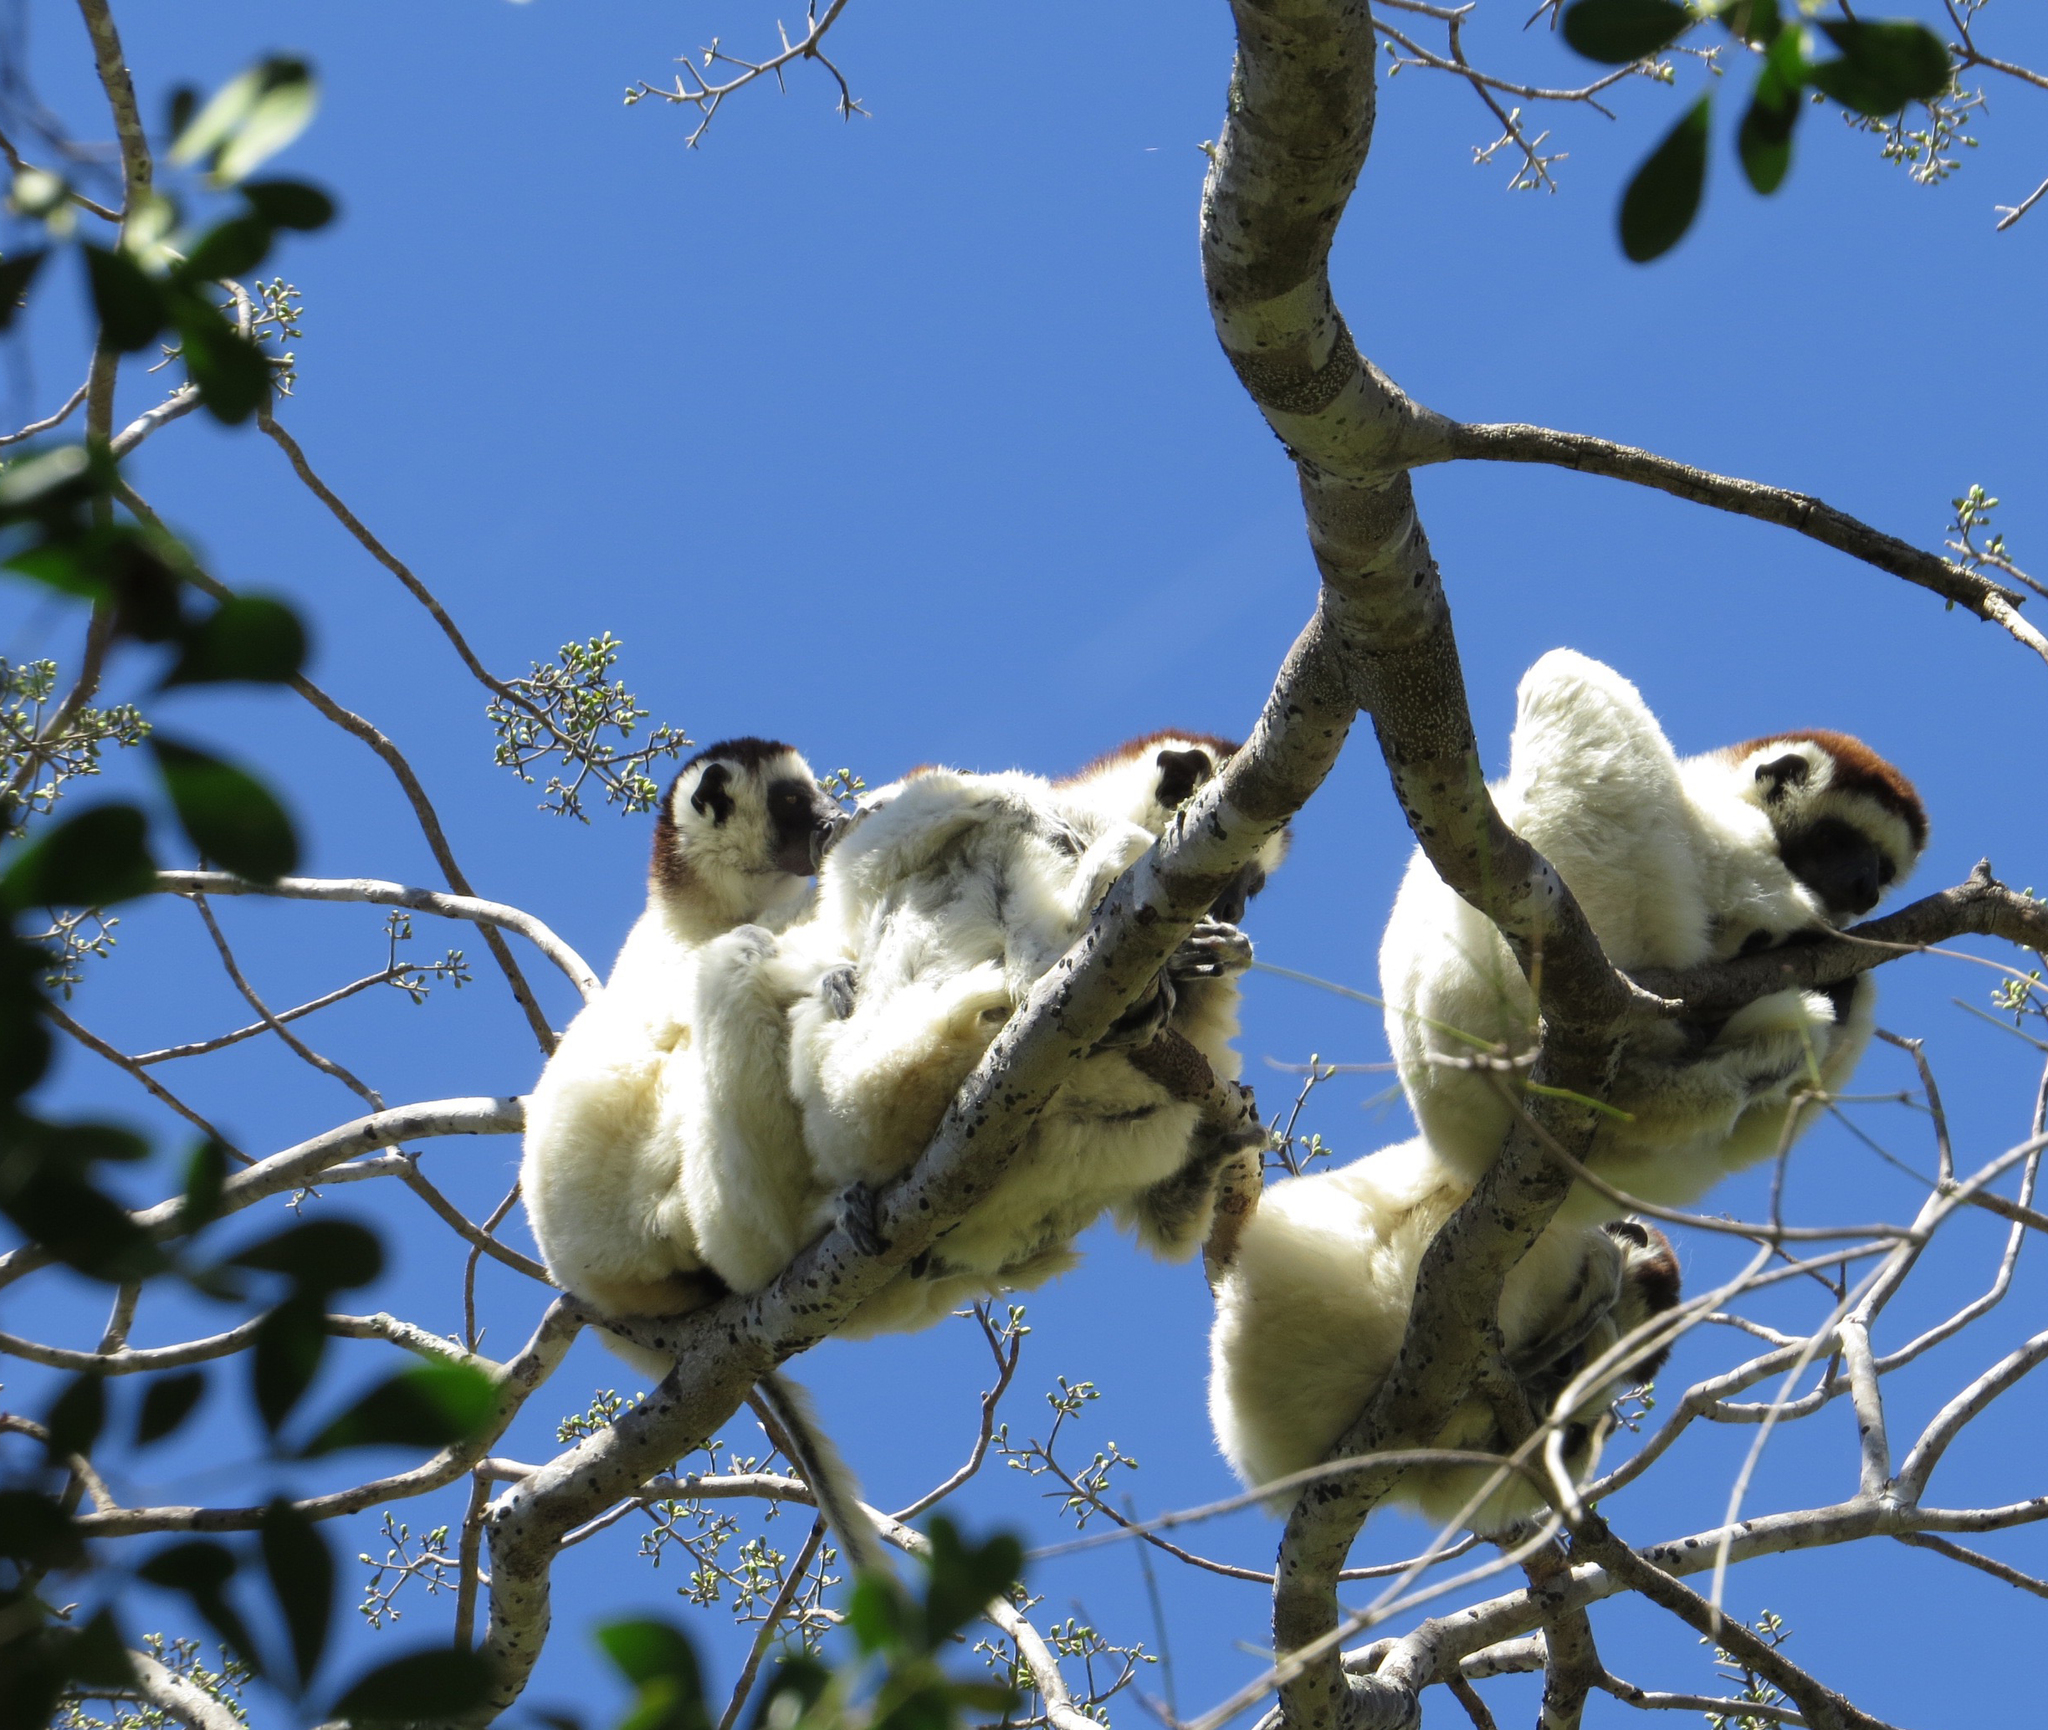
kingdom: Animalia
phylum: Chordata
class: Mammalia
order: Primates
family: Indriidae
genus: Propithecus
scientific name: Propithecus verreauxi
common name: Verreaux's sifaka
